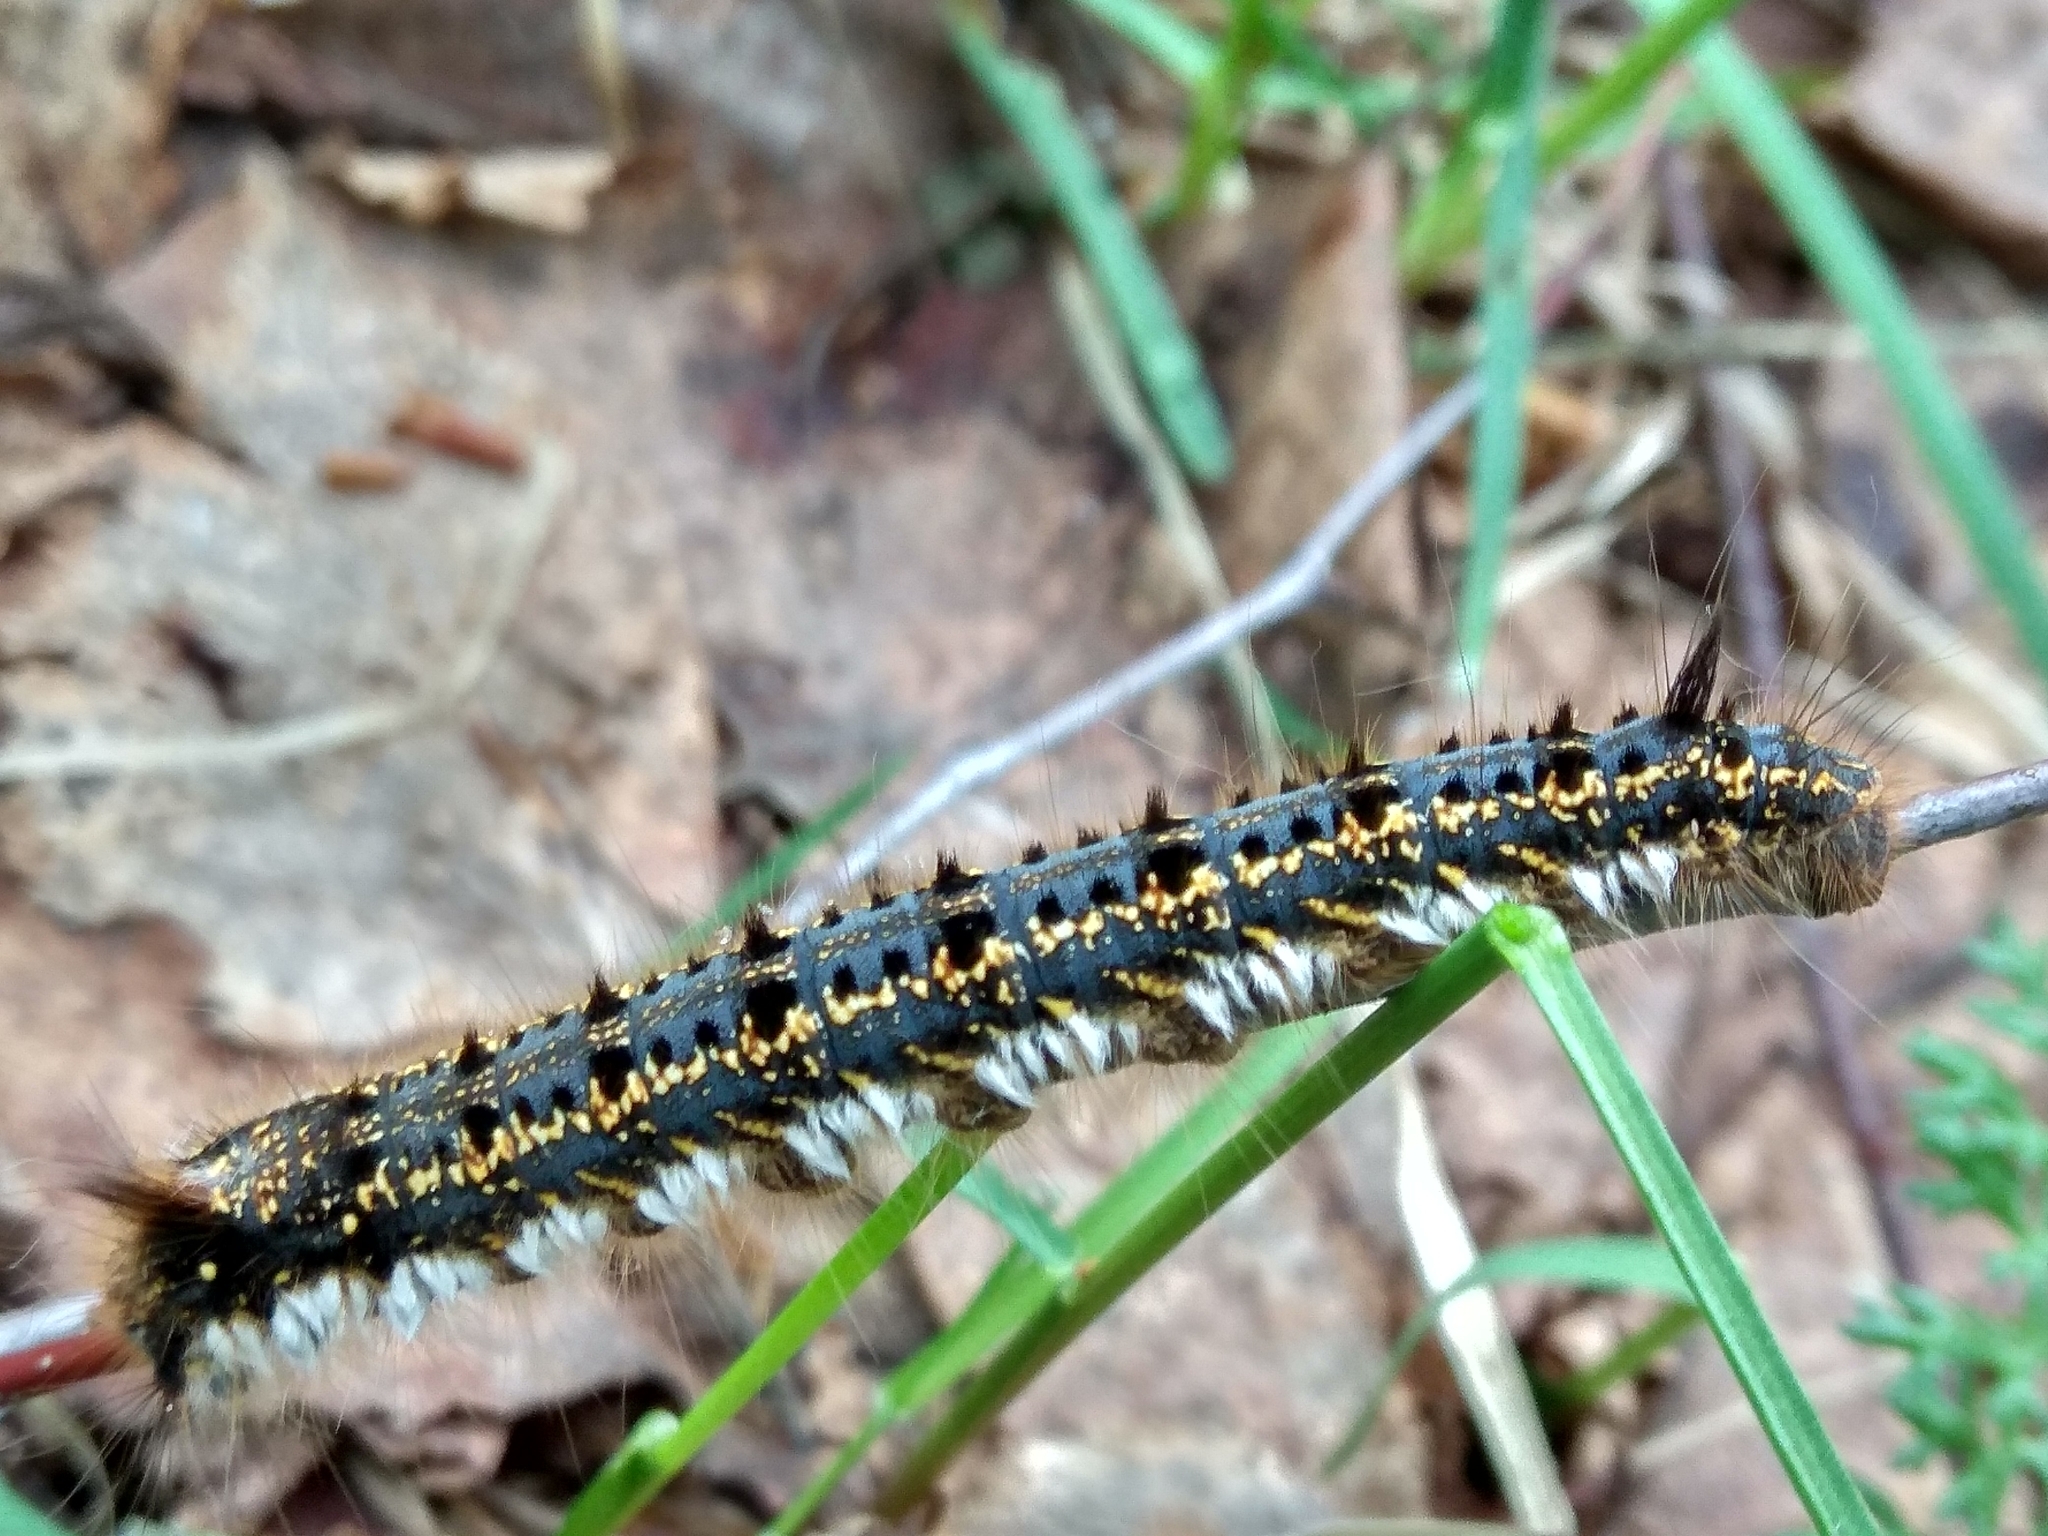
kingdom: Animalia
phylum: Arthropoda
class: Insecta
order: Lepidoptera
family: Lasiocampidae
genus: Euthrix
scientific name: Euthrix potatoria
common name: Drinker
